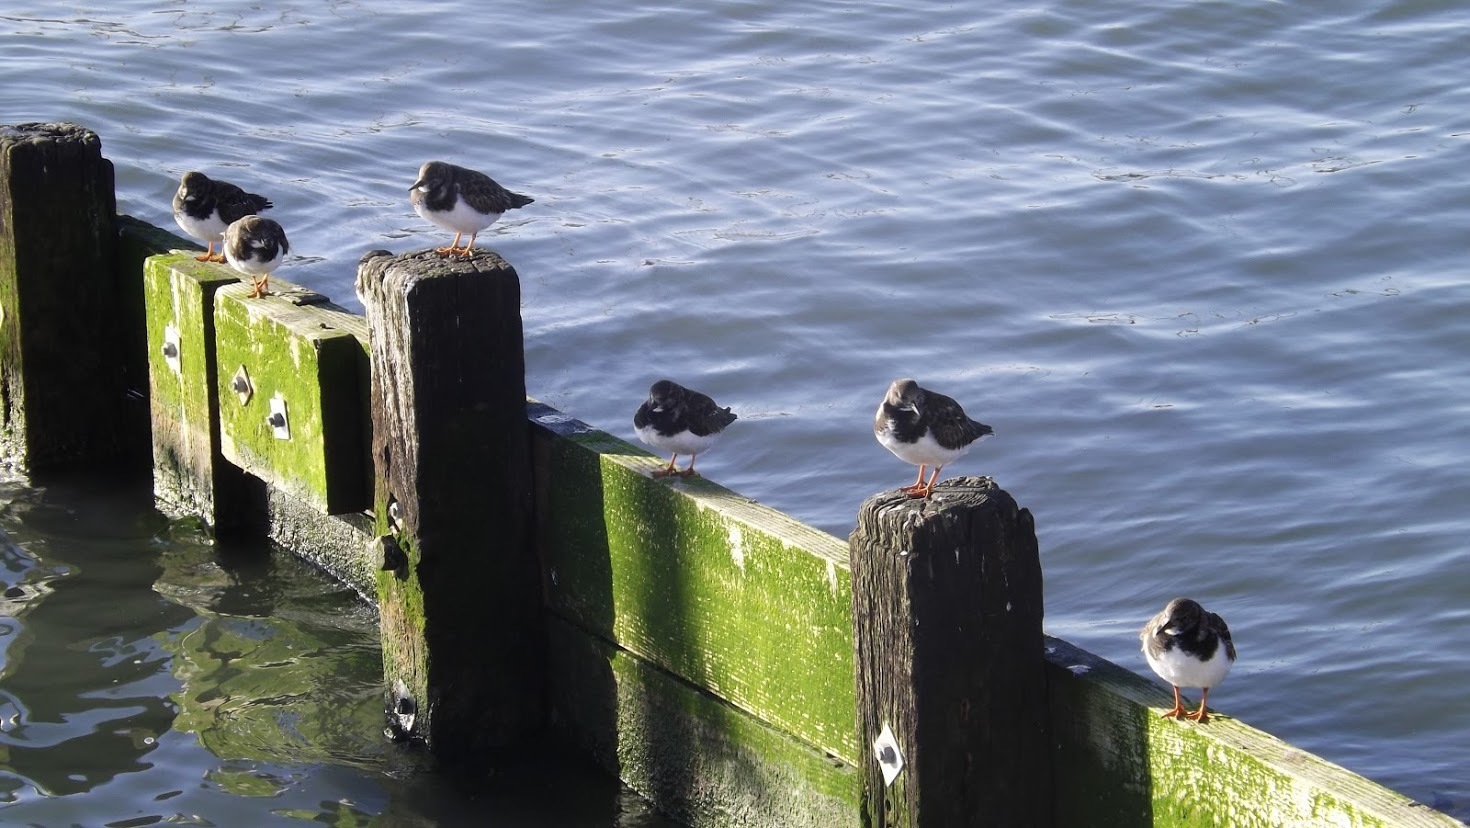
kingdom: Animalia
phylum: Chordata
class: Aves
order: Charadriiformes
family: Scolopacidae
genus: Arenaria
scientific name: Arenaria interpres
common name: Ruddy turnstone
